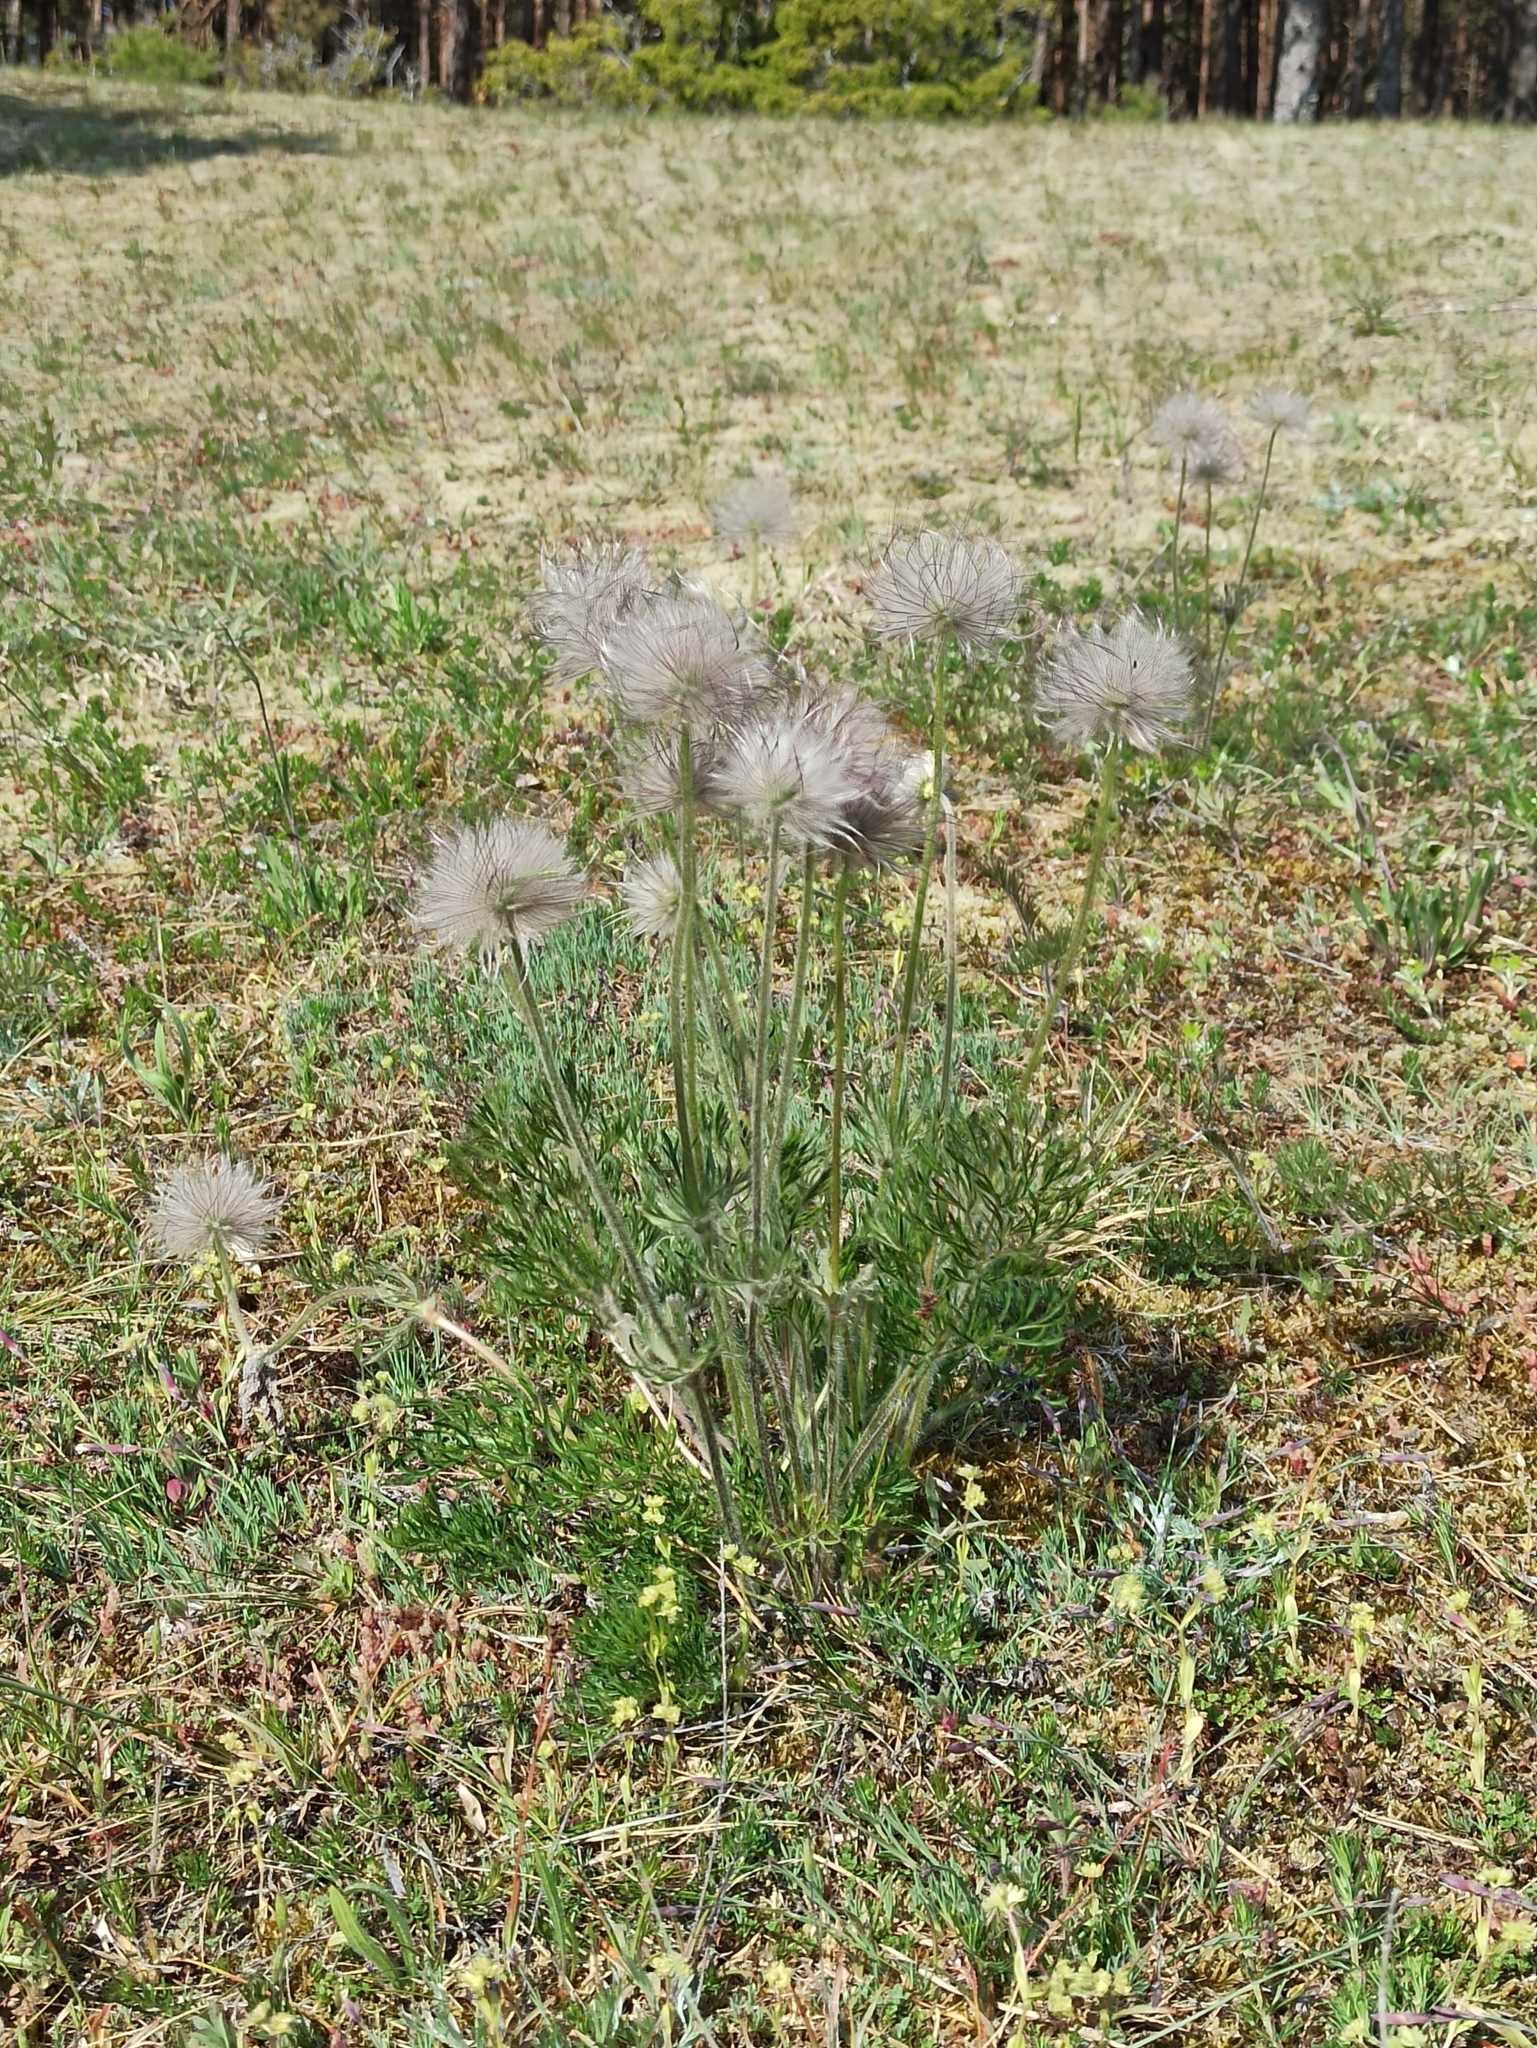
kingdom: Plantae
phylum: Tracheophyta
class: Magnoliopsida
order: Ranunculales
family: Ranunculaceae
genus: Pulsatilla
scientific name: Pulsatilla pratensis
